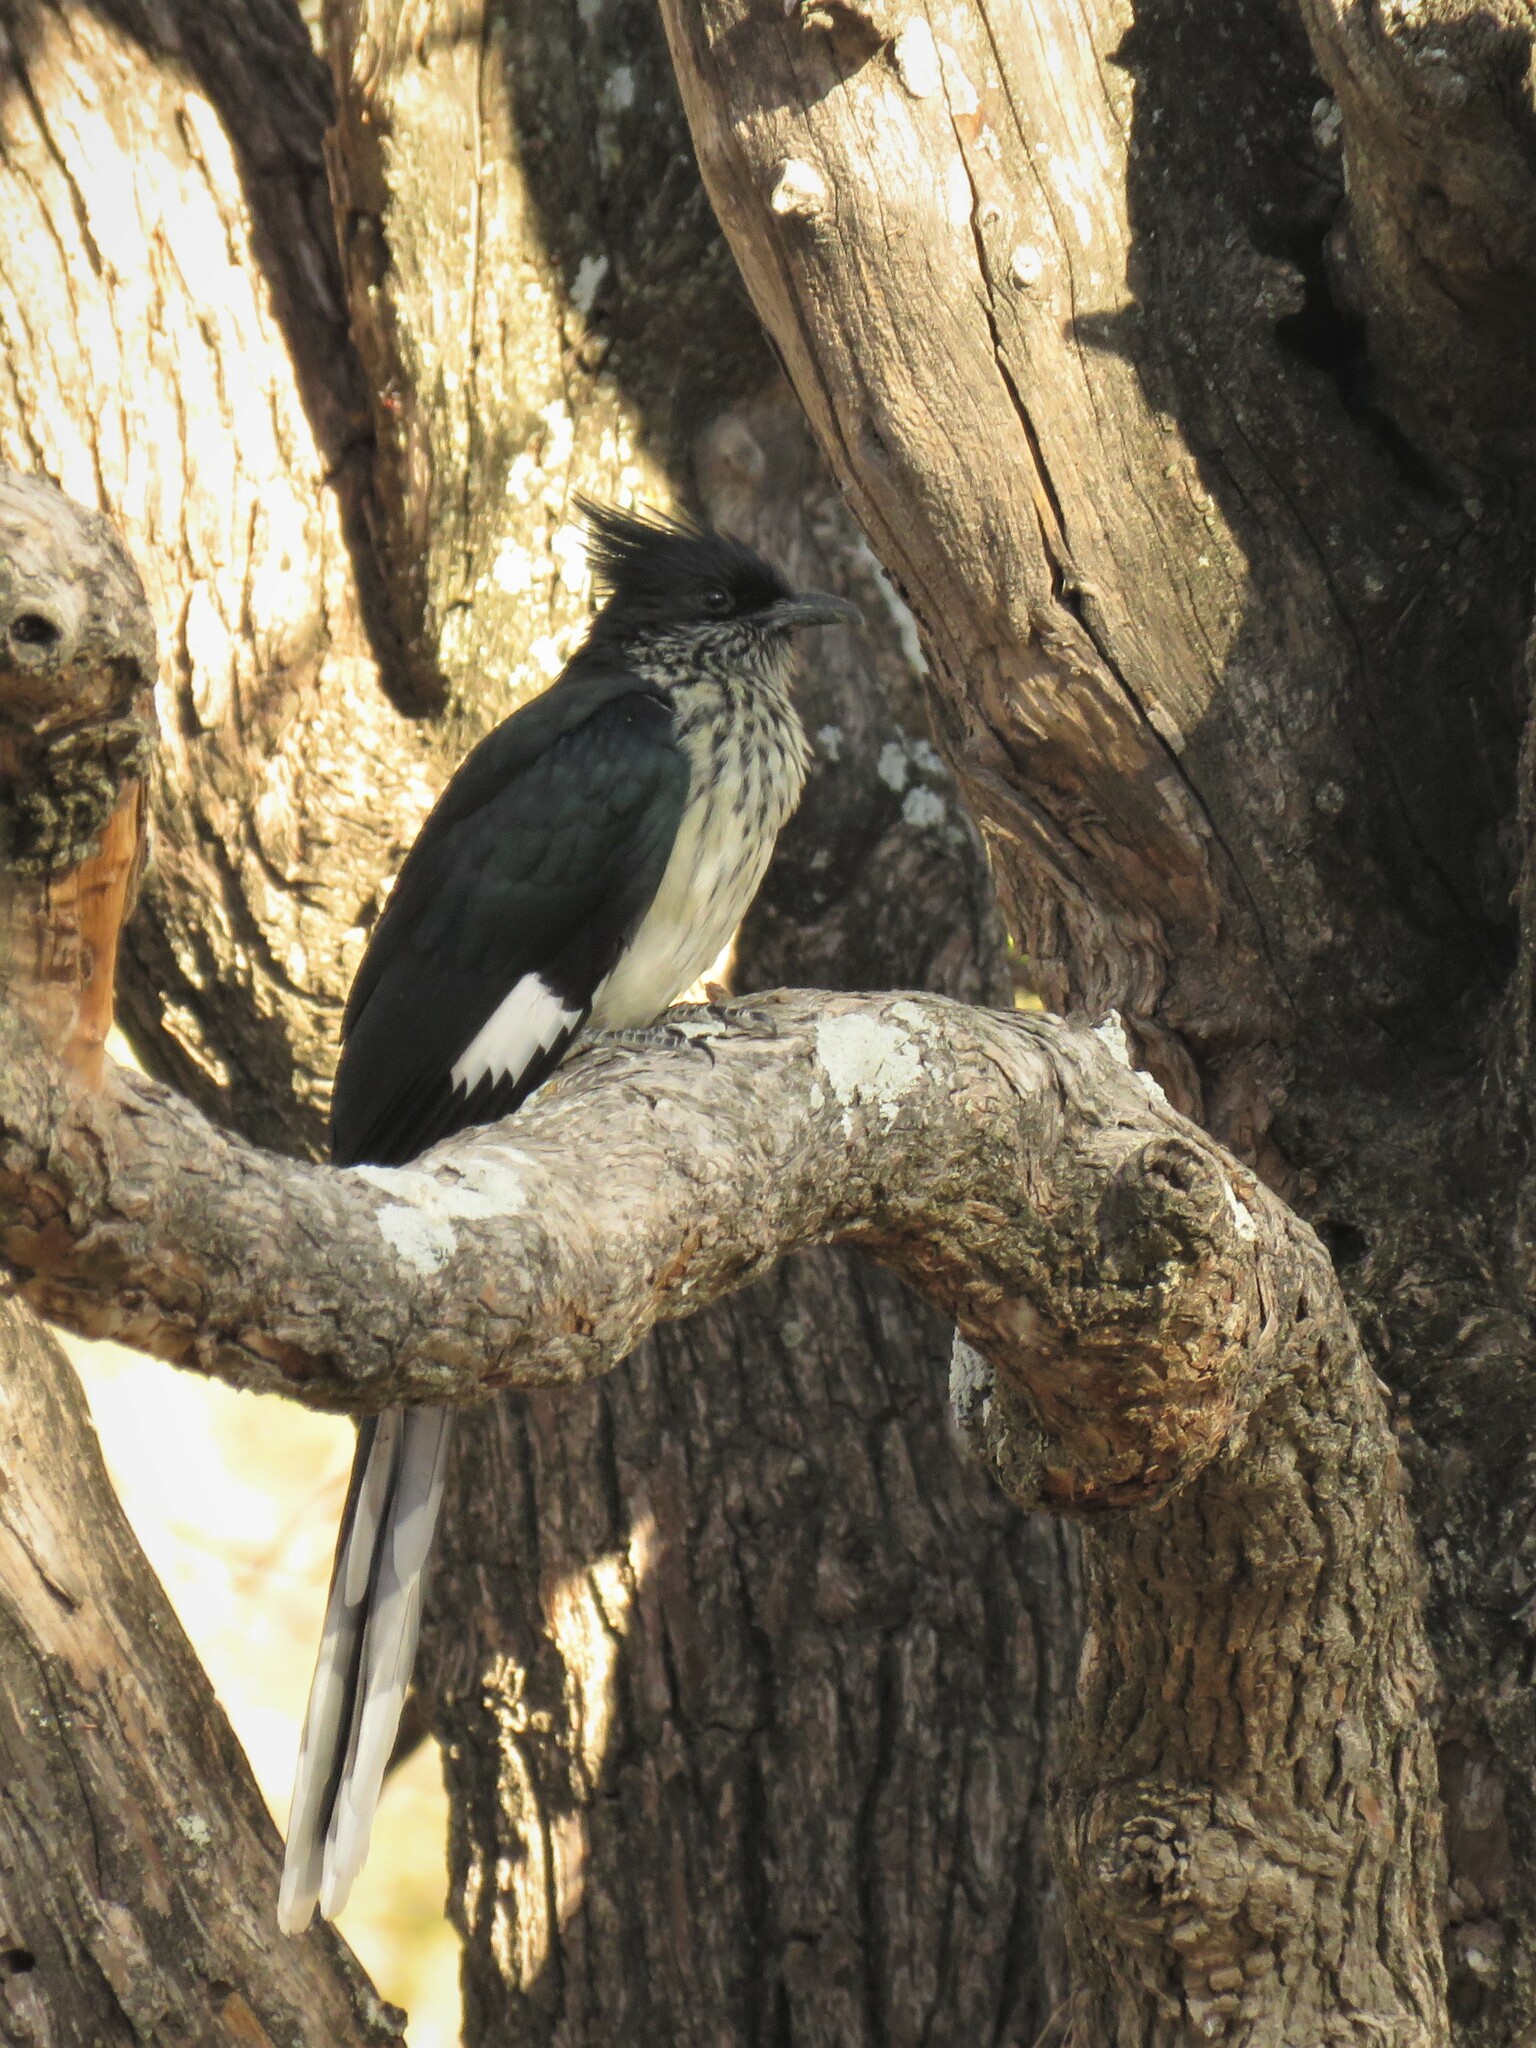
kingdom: Animalia
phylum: Chordata
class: Aves
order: Cuculiformes
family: Cuculidae
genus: Clamator
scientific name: Clamator levaillantii
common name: Levaillant's cuckoo
